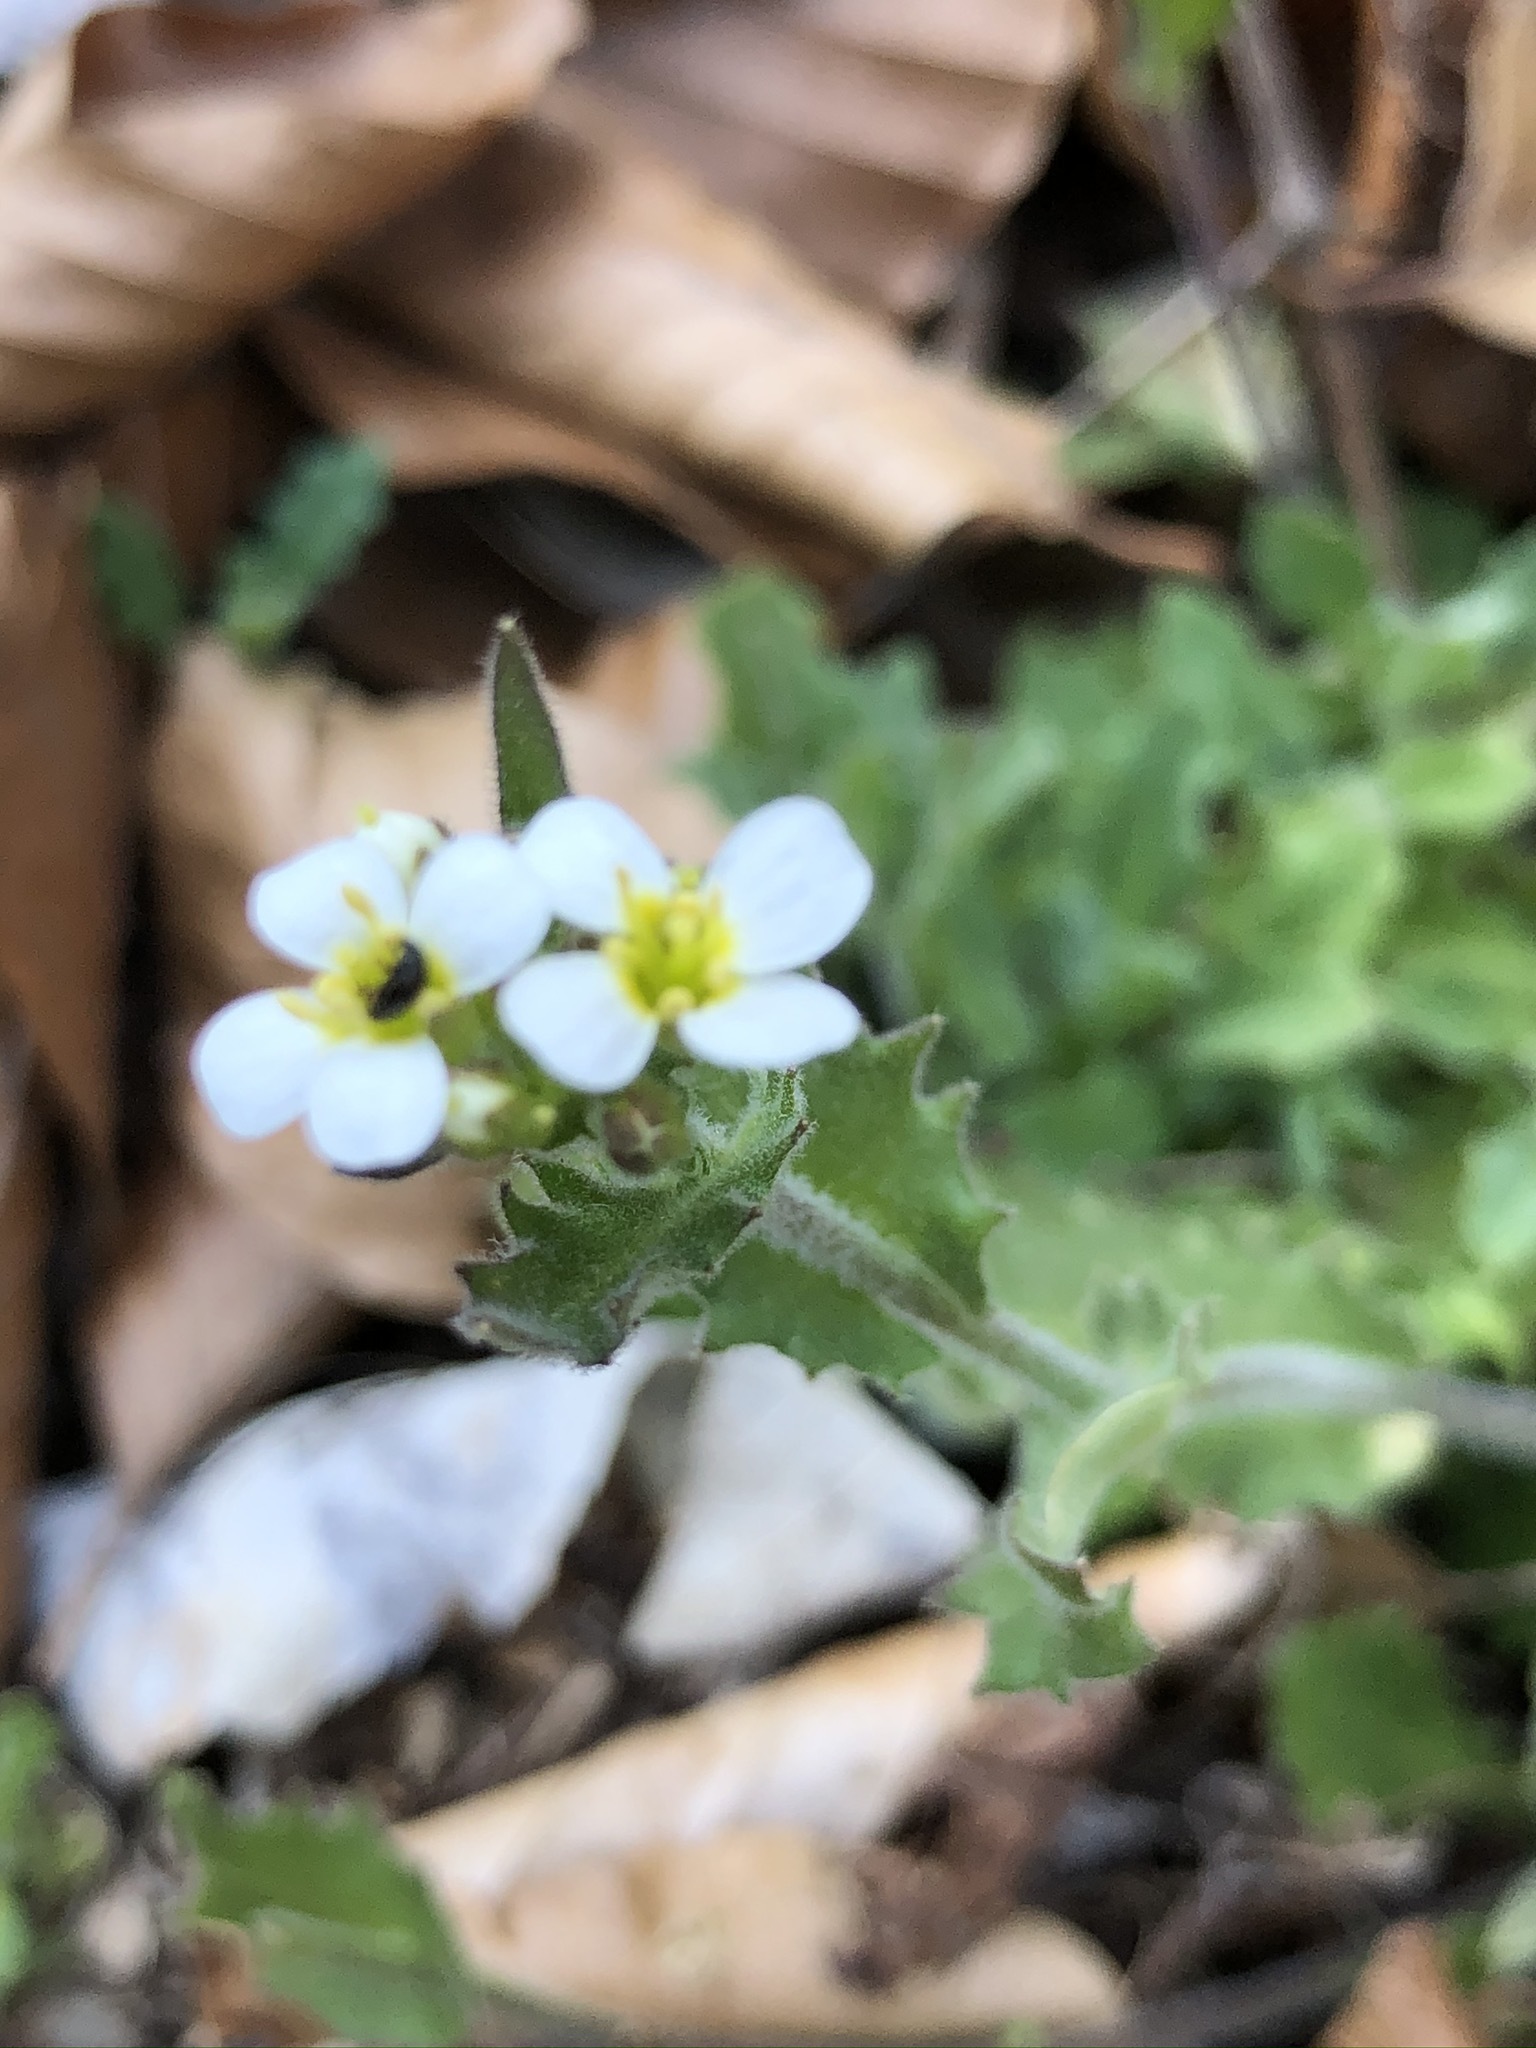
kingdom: Plantae
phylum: Tracheophyta
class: Magnoliopsida
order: Brassicales
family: Brassicaceae
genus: Arabis
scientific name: Arabis alpina
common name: Alpine rock-cress
